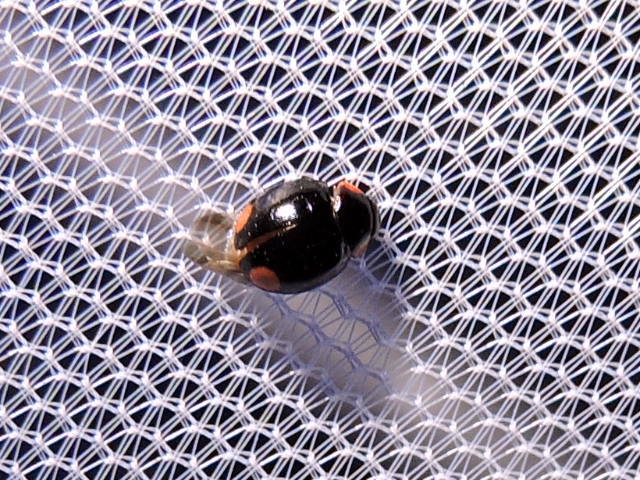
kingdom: Animalia
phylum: Arthropoda
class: Insecta
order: Coleoptera
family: Coccinellidae
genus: Hyperaspis
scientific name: Hyperaspis bigeminata
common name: Bigeminate sigil lady beetle
